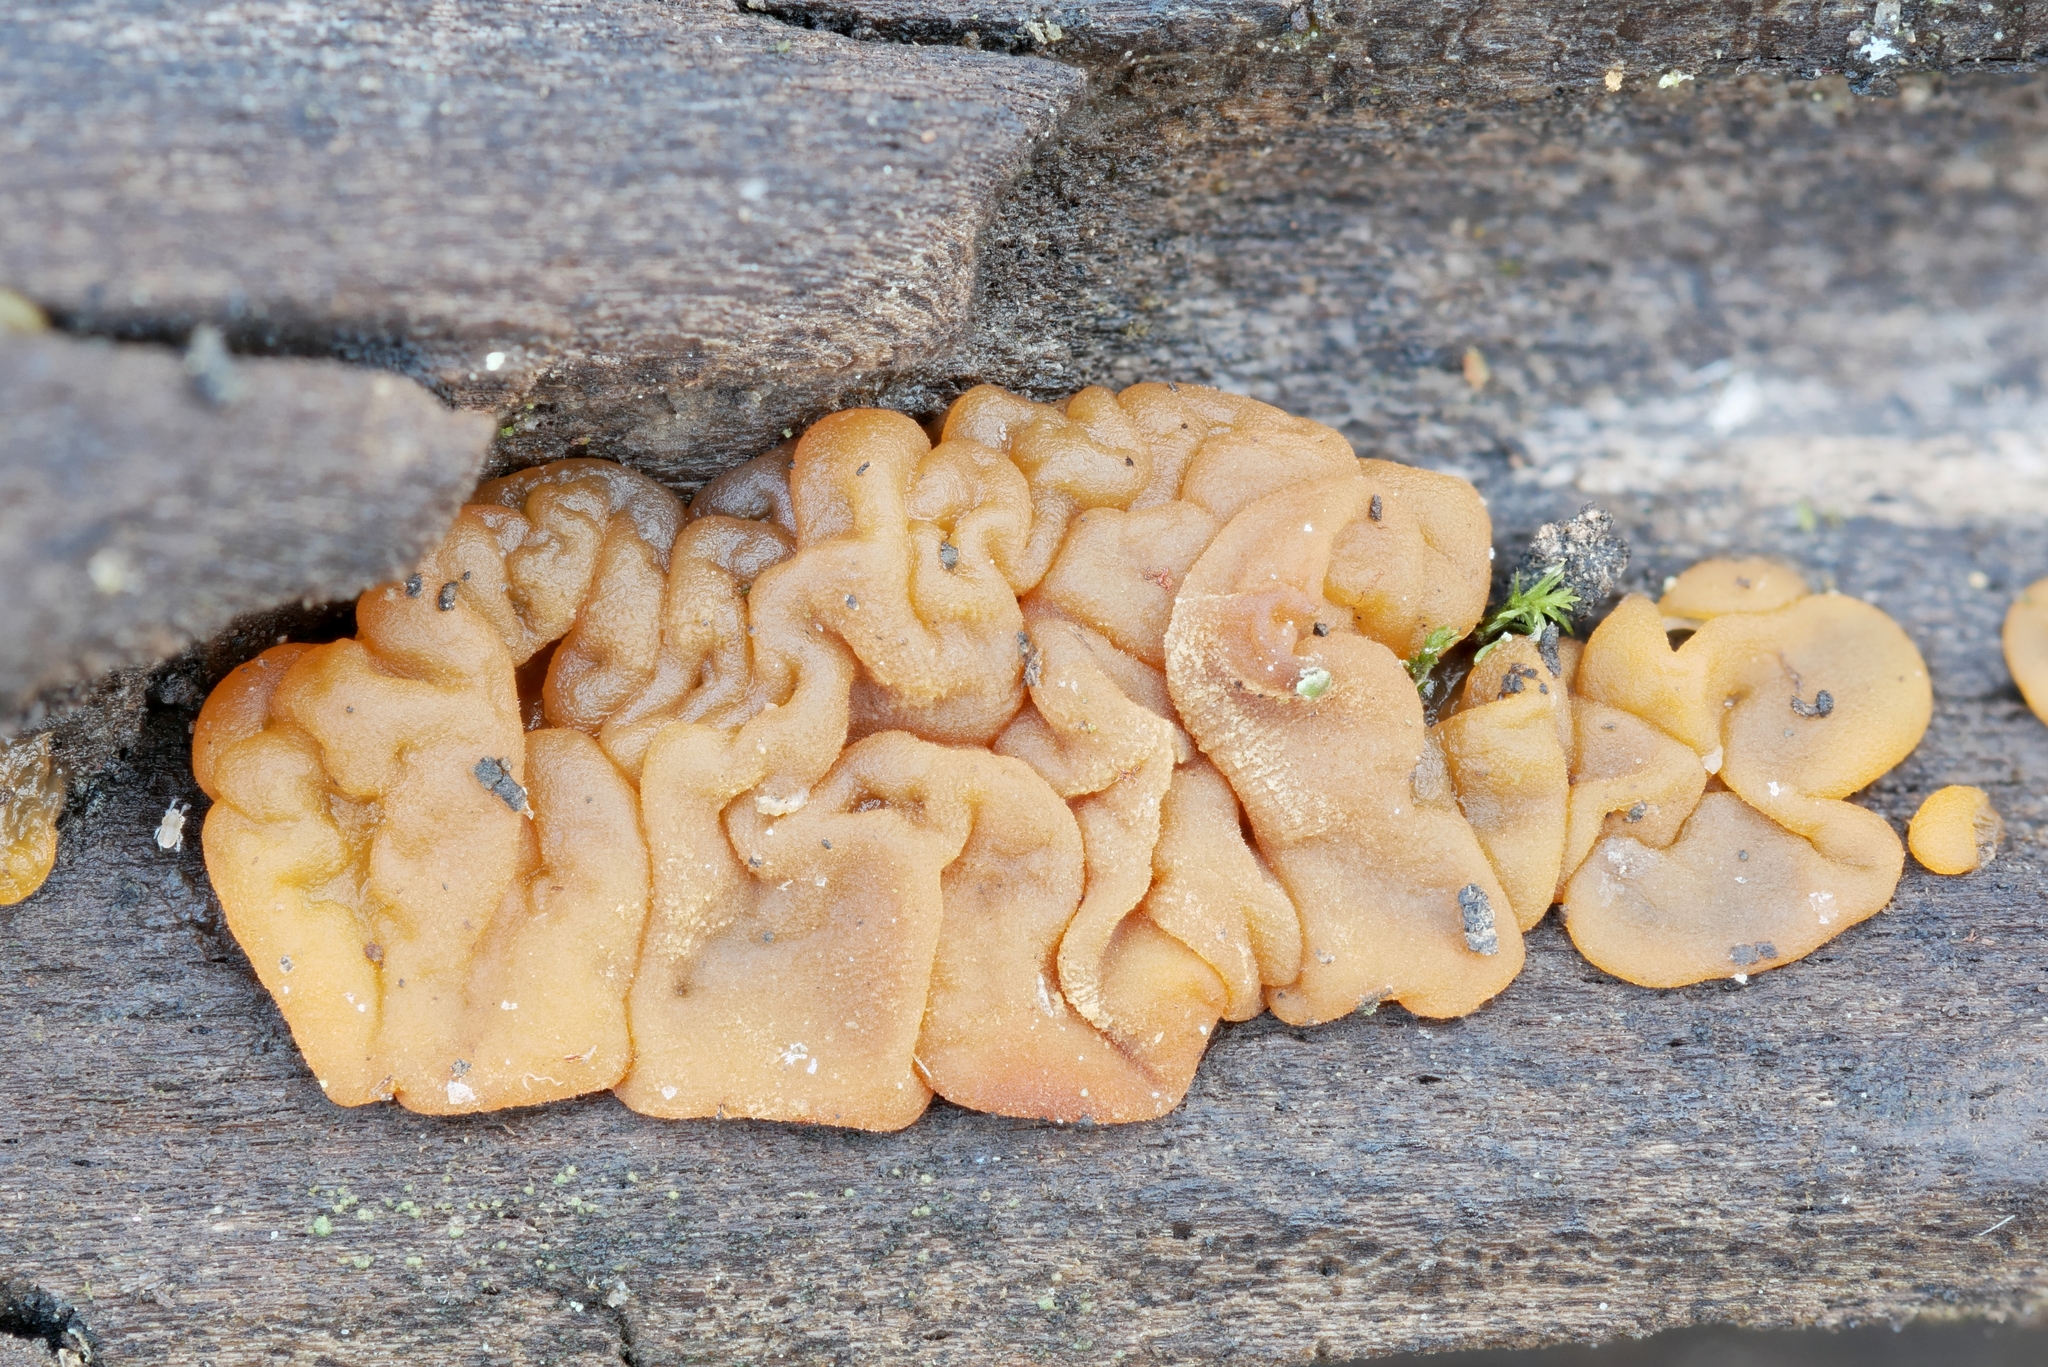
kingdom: Fungi
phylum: Basidiomycota
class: Dacrymycetes
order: Dacrymycetales
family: Dacrymycetaceae
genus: Dacrymyces
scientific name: Dacrymyces stillatus
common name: Common jelly spot
